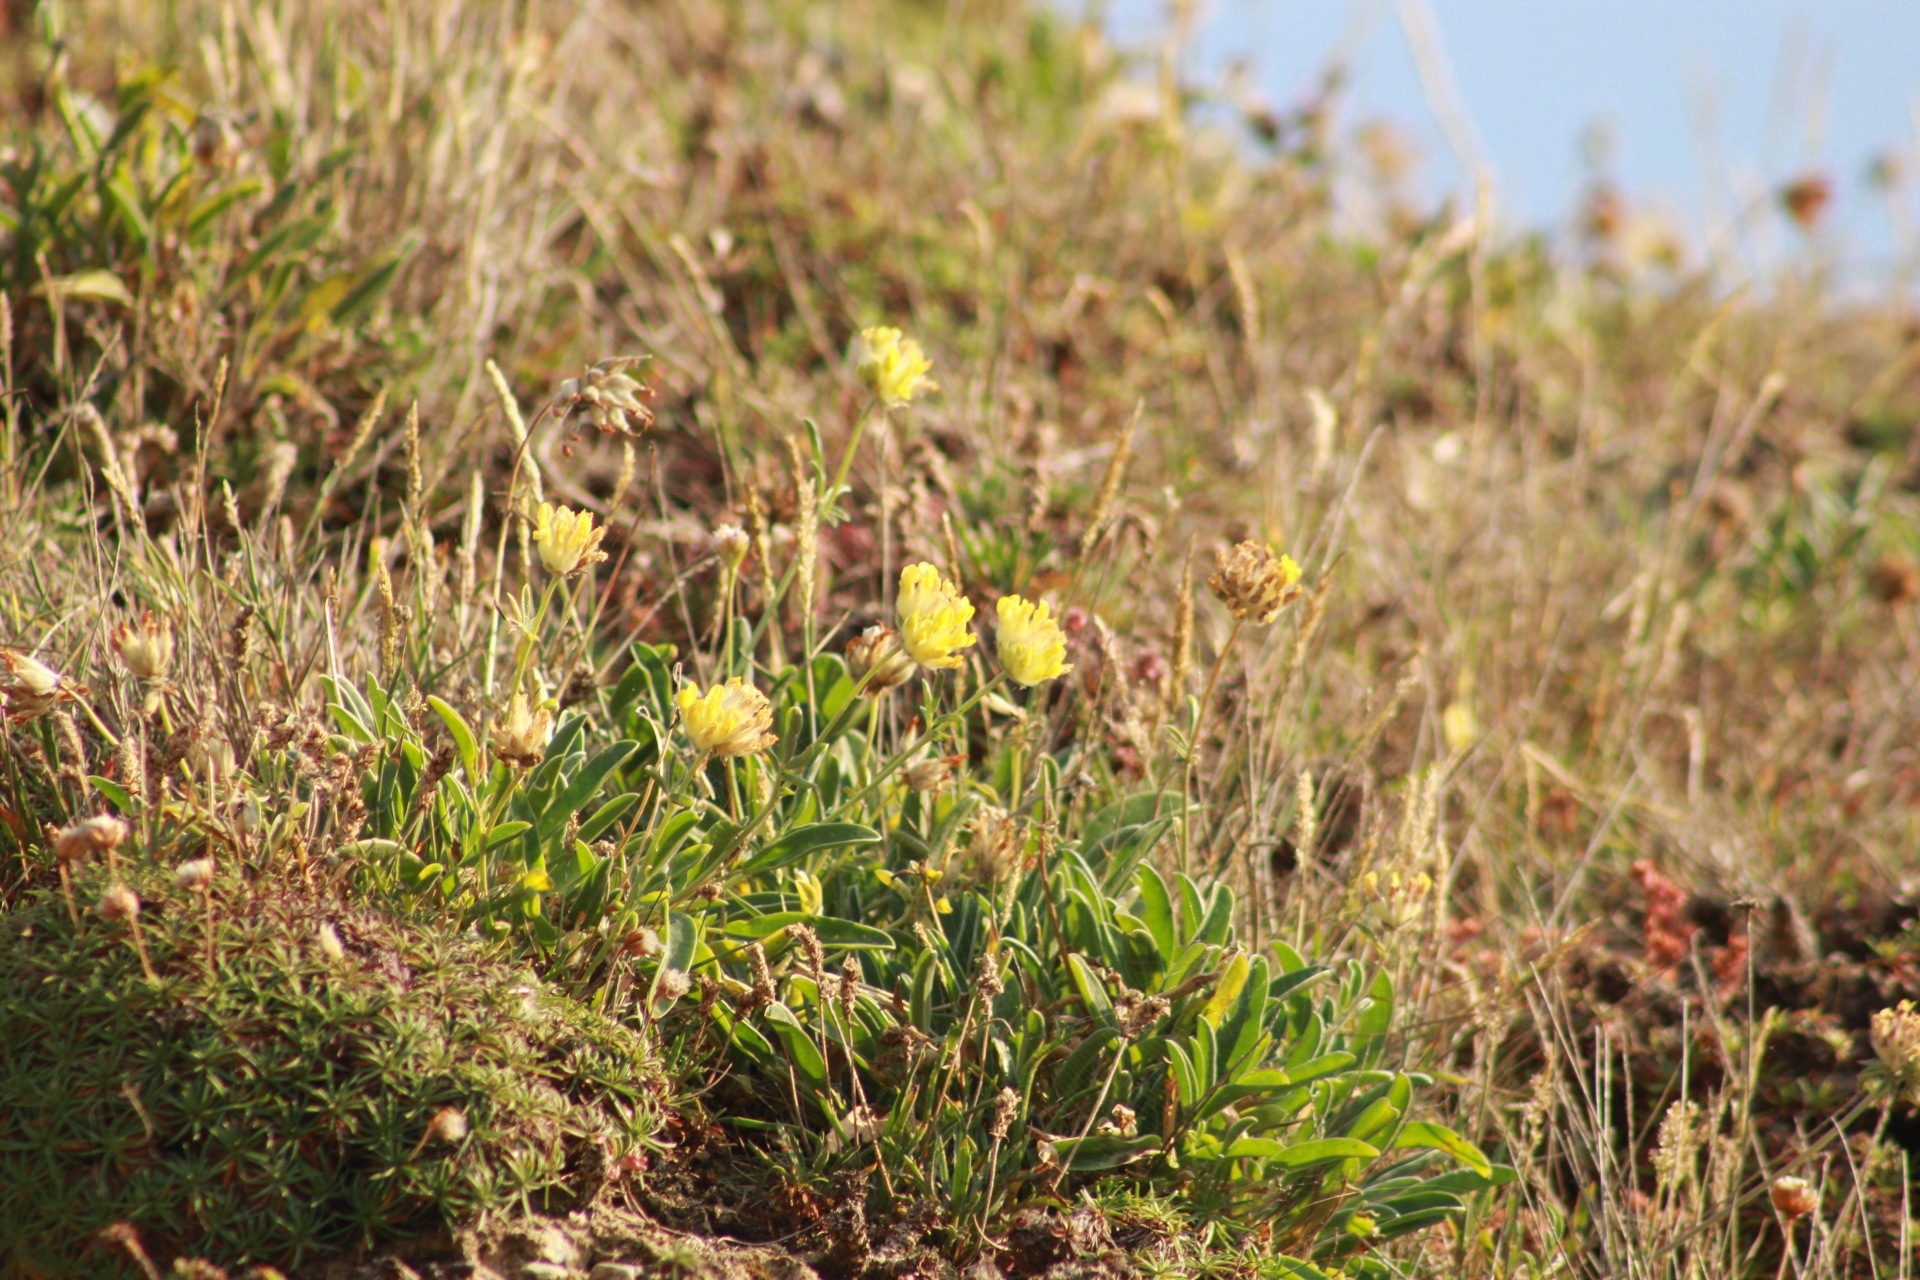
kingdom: Plantae
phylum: Tracheophyta
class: Magnoliopsida
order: Fabales
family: Fabaceae
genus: Anthyllis
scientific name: Anthyllis vulneraria
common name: Kidney vetch
